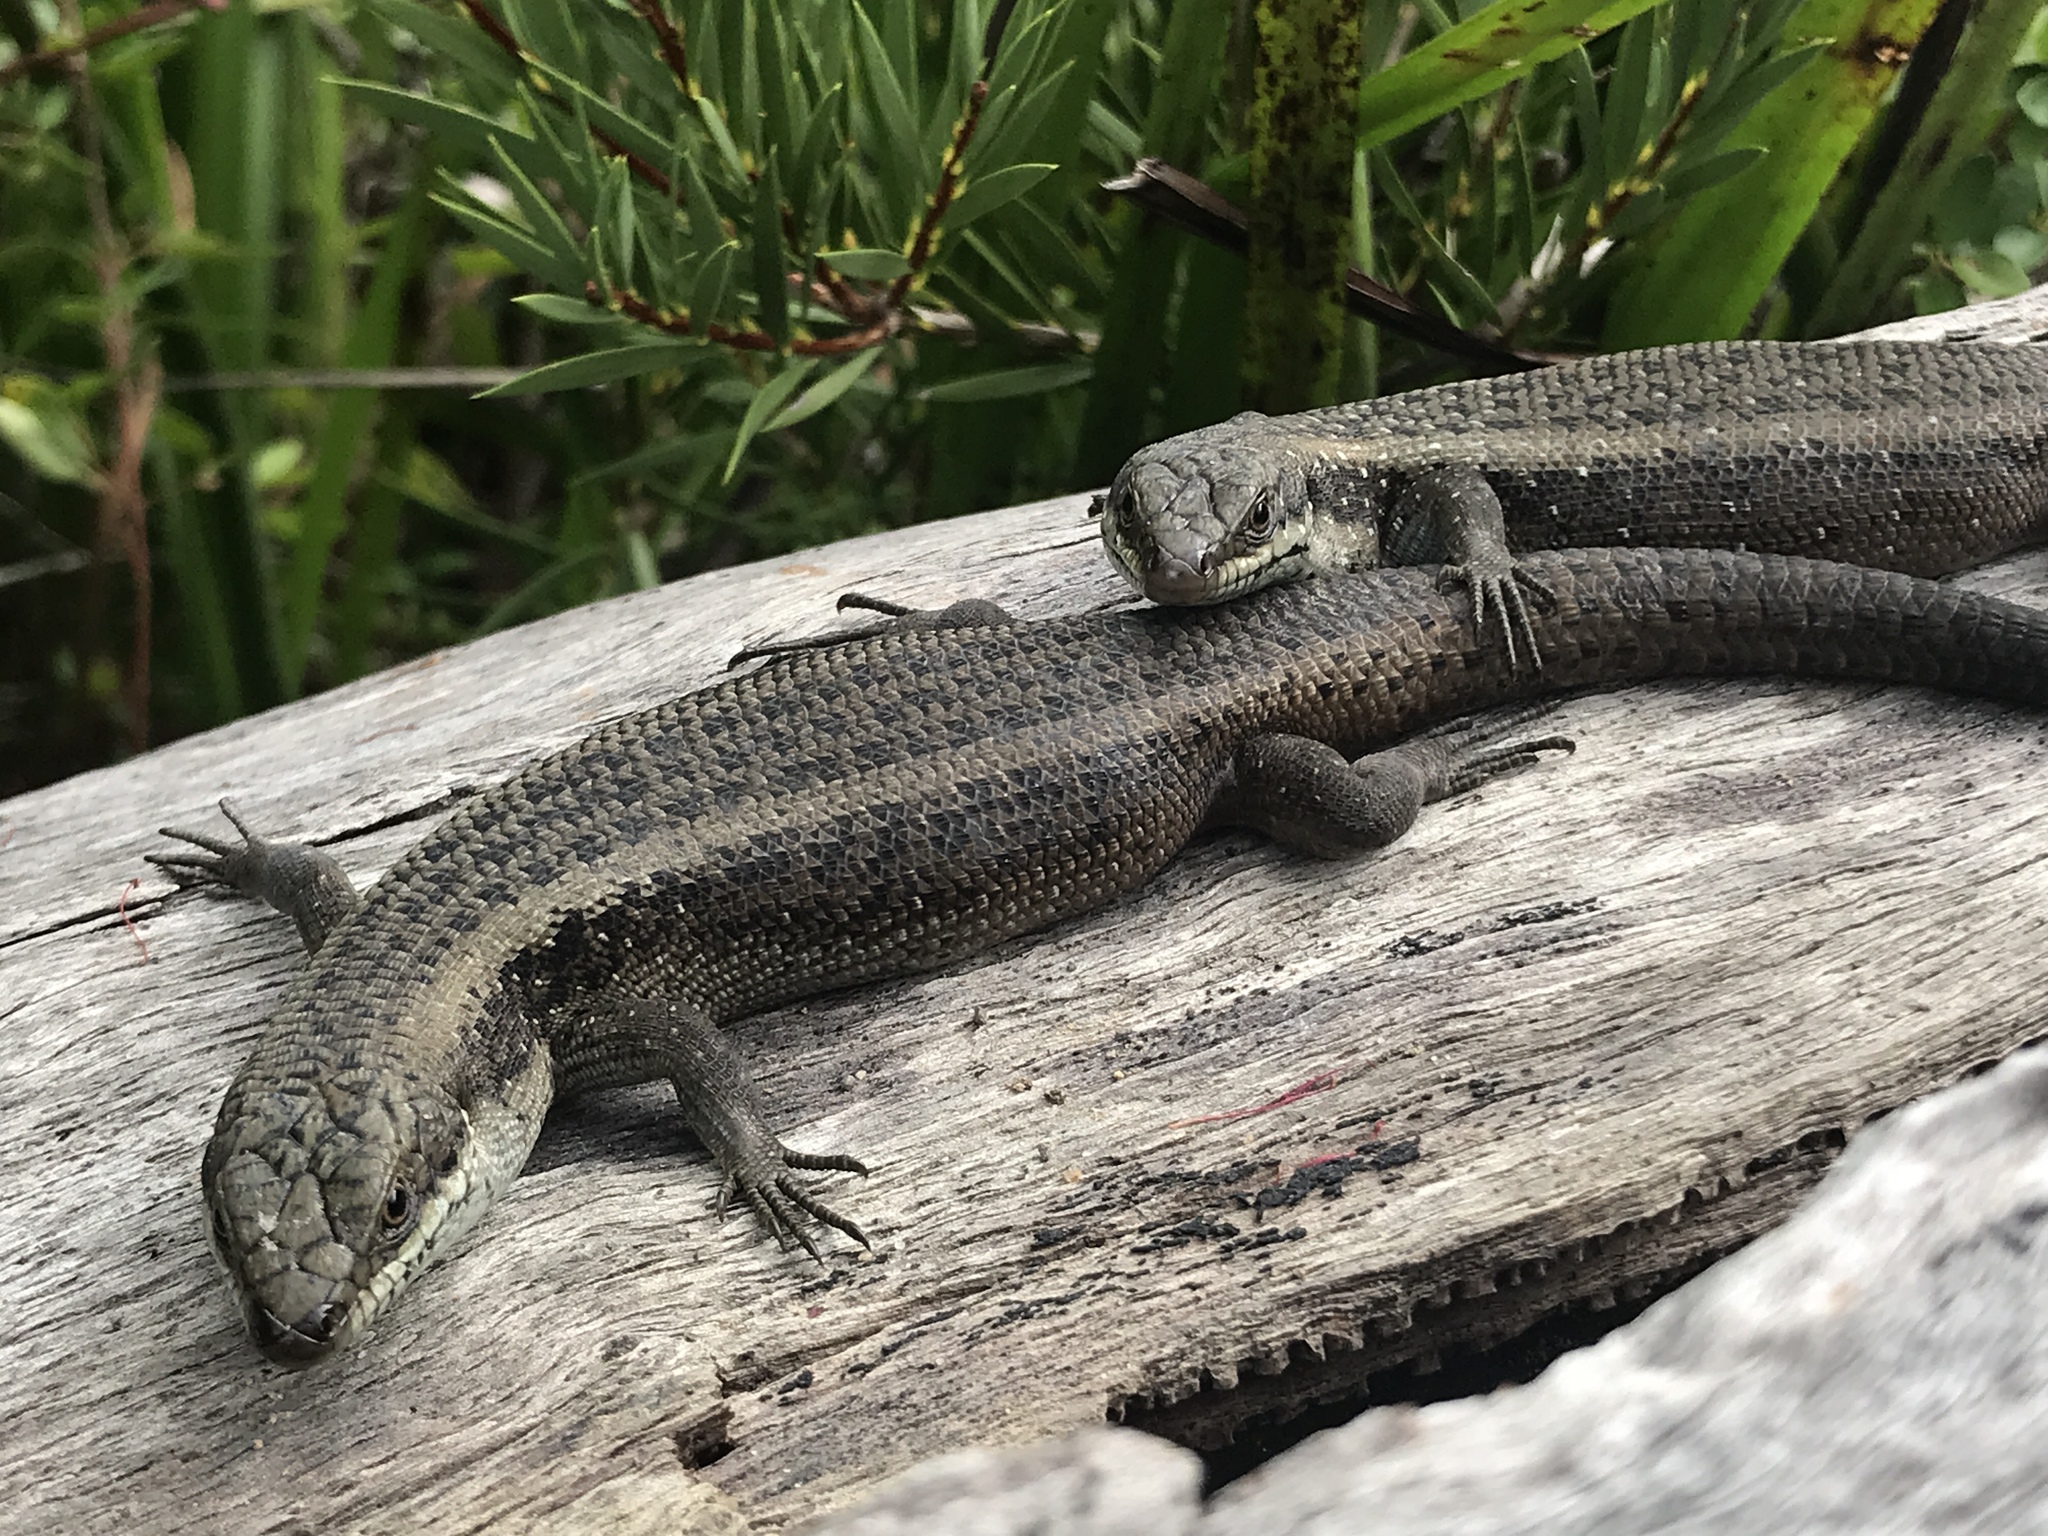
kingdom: Animalia
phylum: Chordata
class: Squamata
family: Scincidae
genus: Egernia
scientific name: Egernia napoleonis
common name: South-western crevice skink
